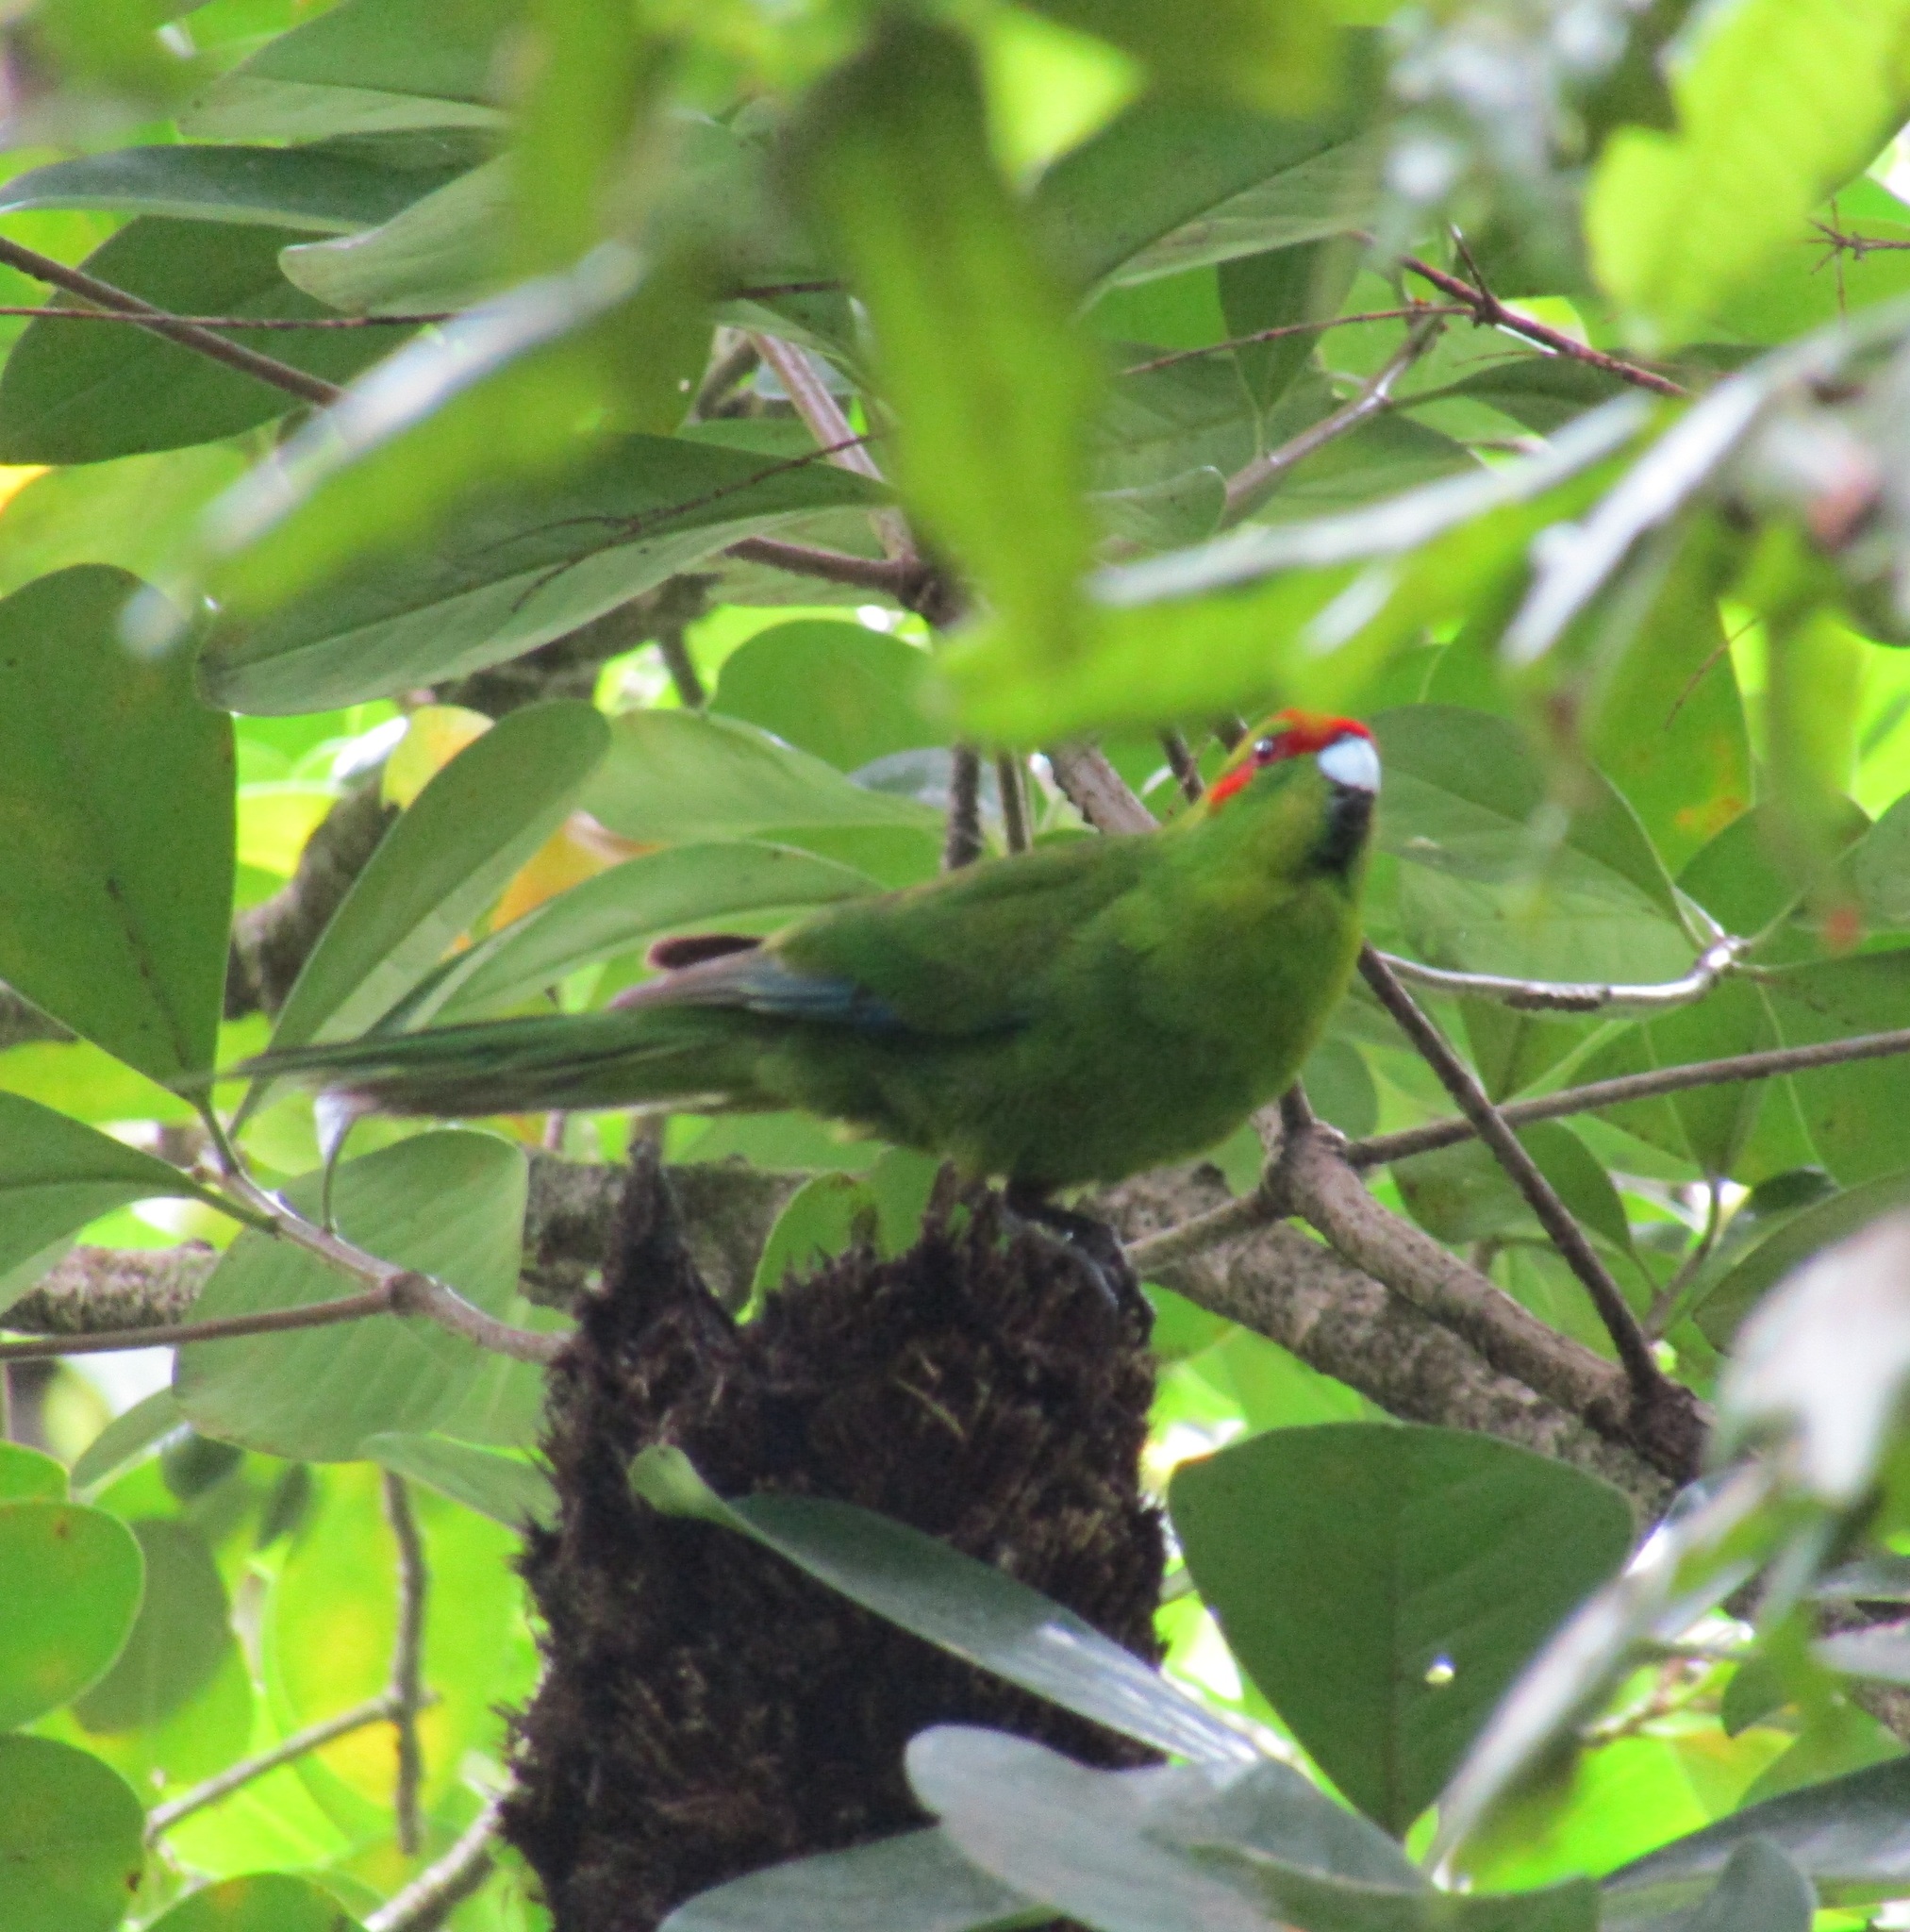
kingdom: Animalia
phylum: Chordata
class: Aves
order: Psittaciformes
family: Psittacidae
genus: Cyanoramphus
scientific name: Cyanoramphus novaezelandiae
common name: Red-fronted parakeet
